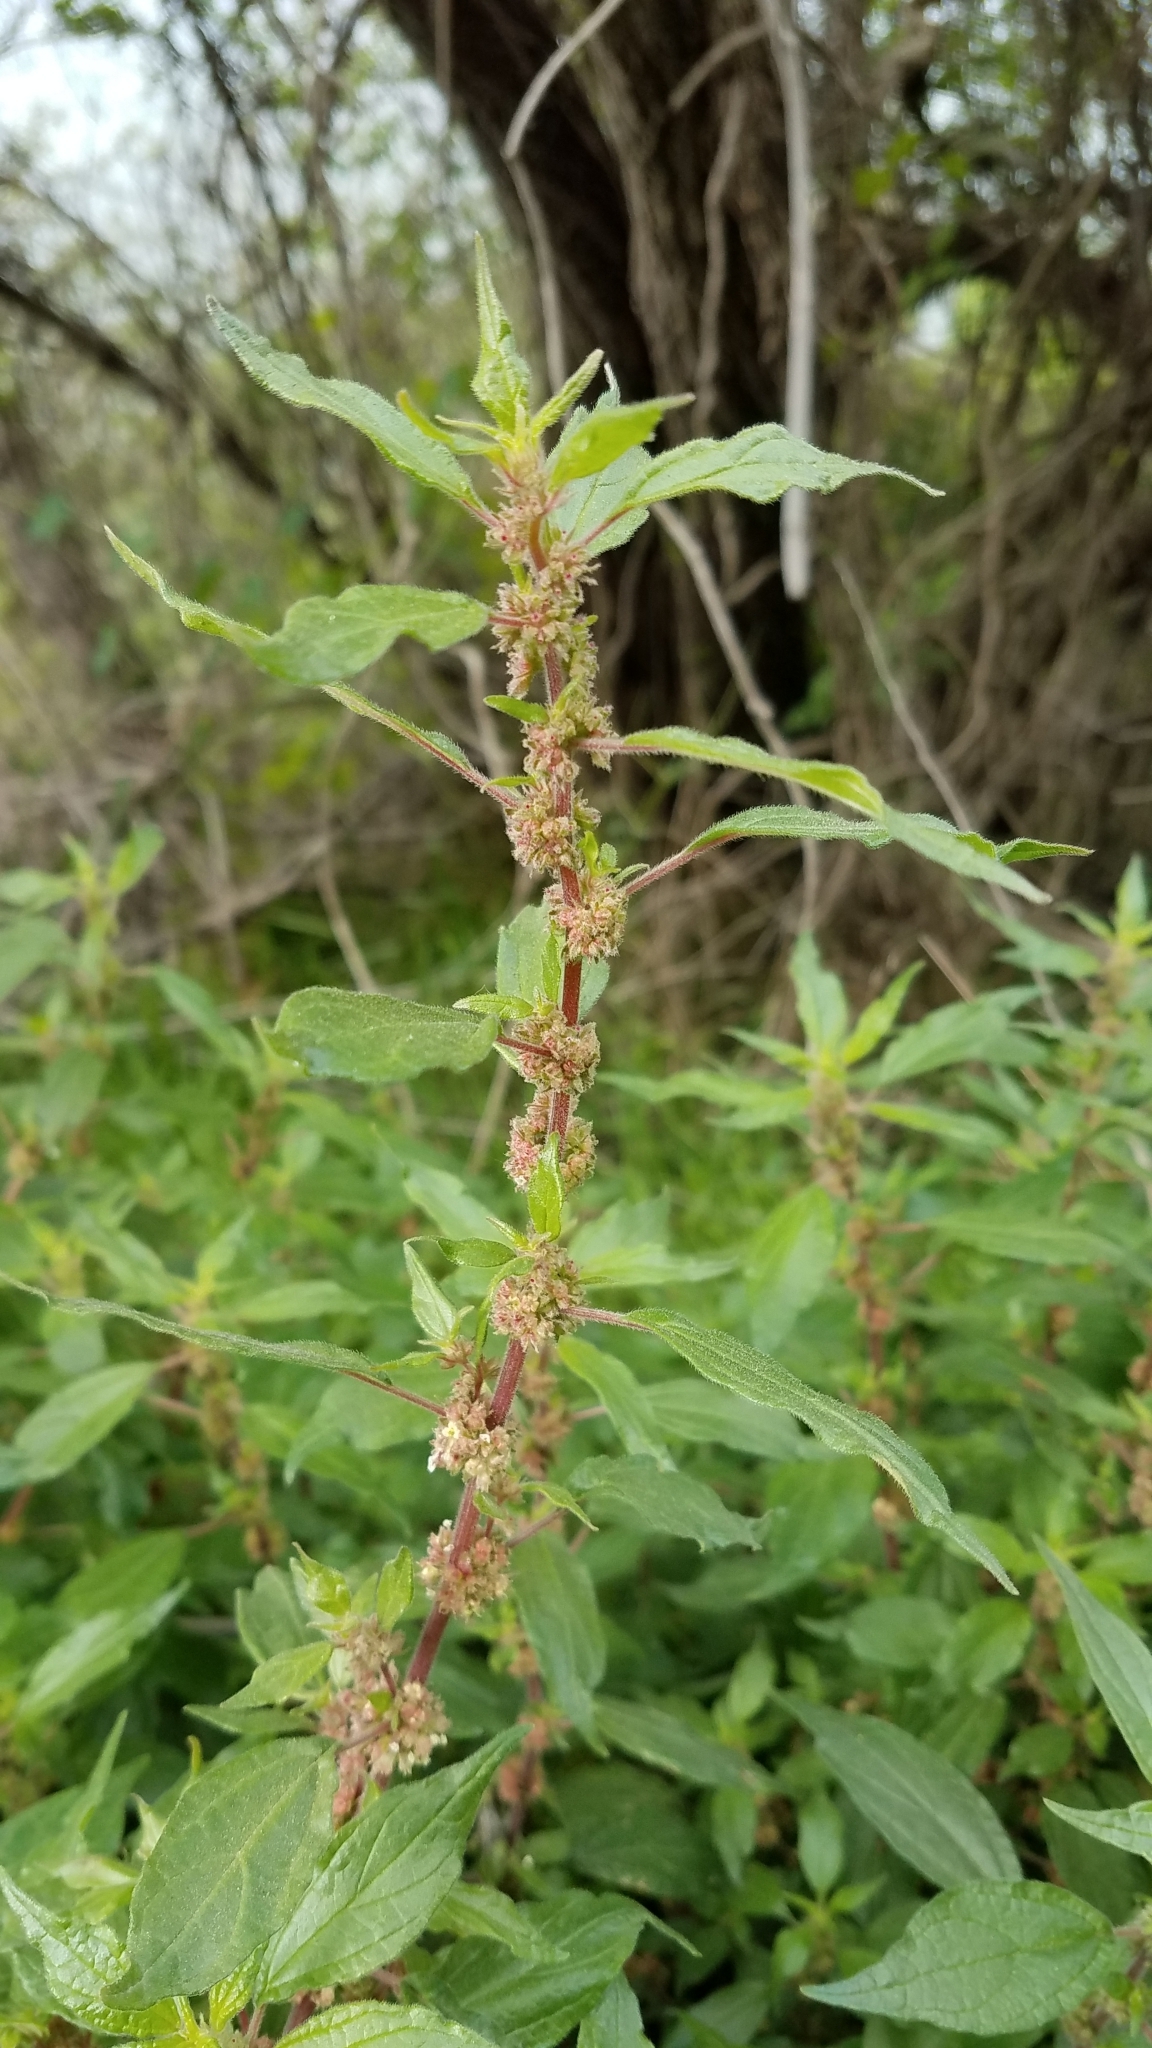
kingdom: Plantae
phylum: Tracheophyta
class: Magnoliopsida
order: Rosales
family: Urticaceae
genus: Parietaria
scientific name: Parietaria judaica
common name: Pellitory-of-the-wall
